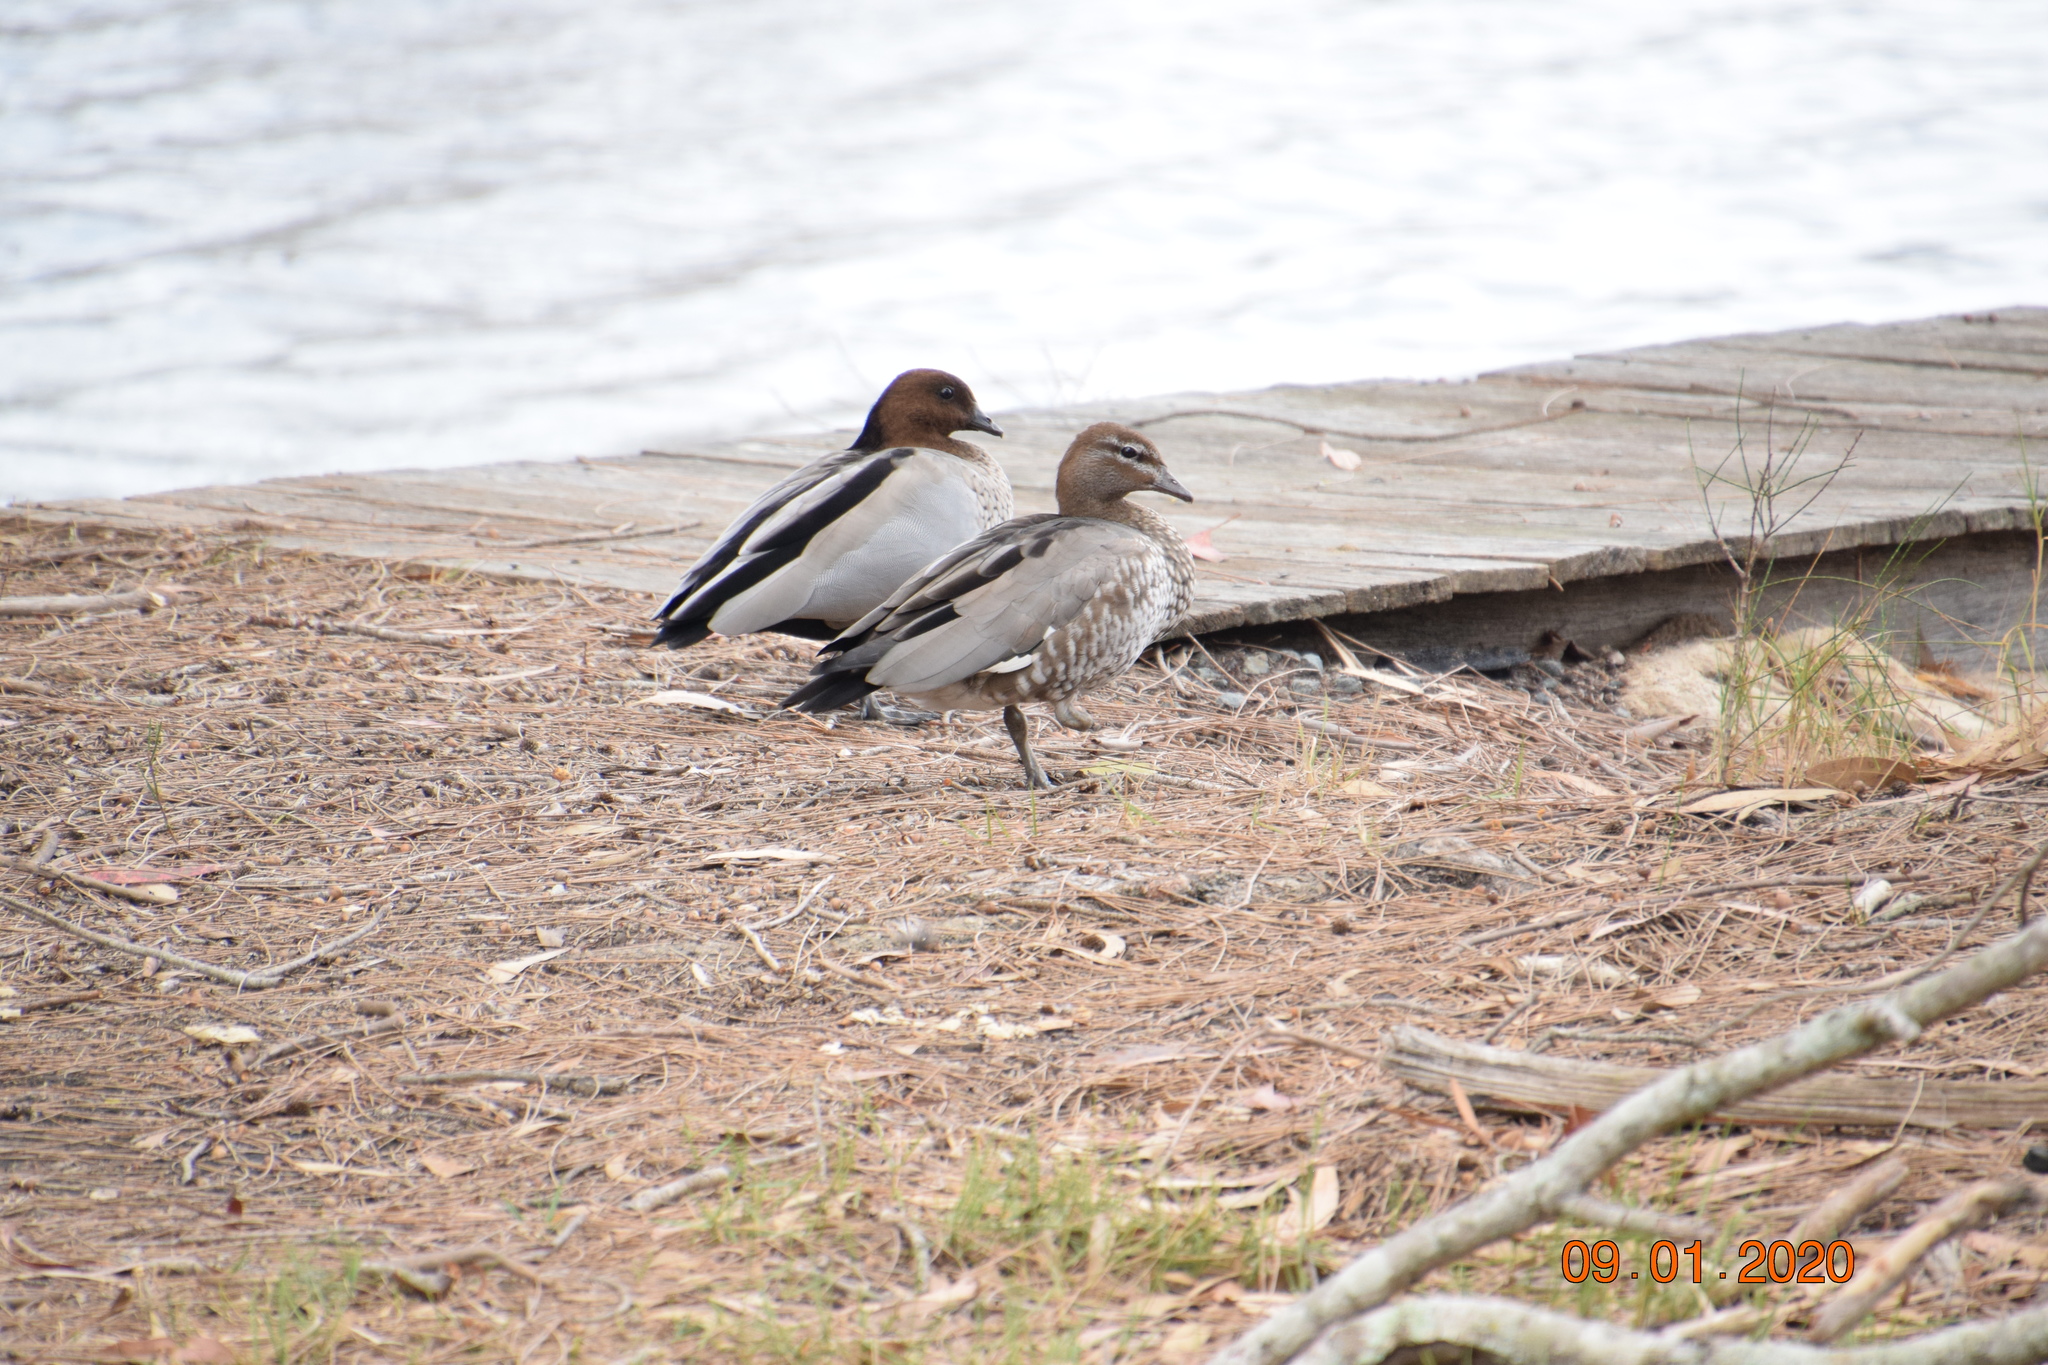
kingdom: Animalia
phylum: Chordata
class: Aves
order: Anseriformes
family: Anatidae
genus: Chenonetta
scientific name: Chenonetta jubata
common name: Maned duck
